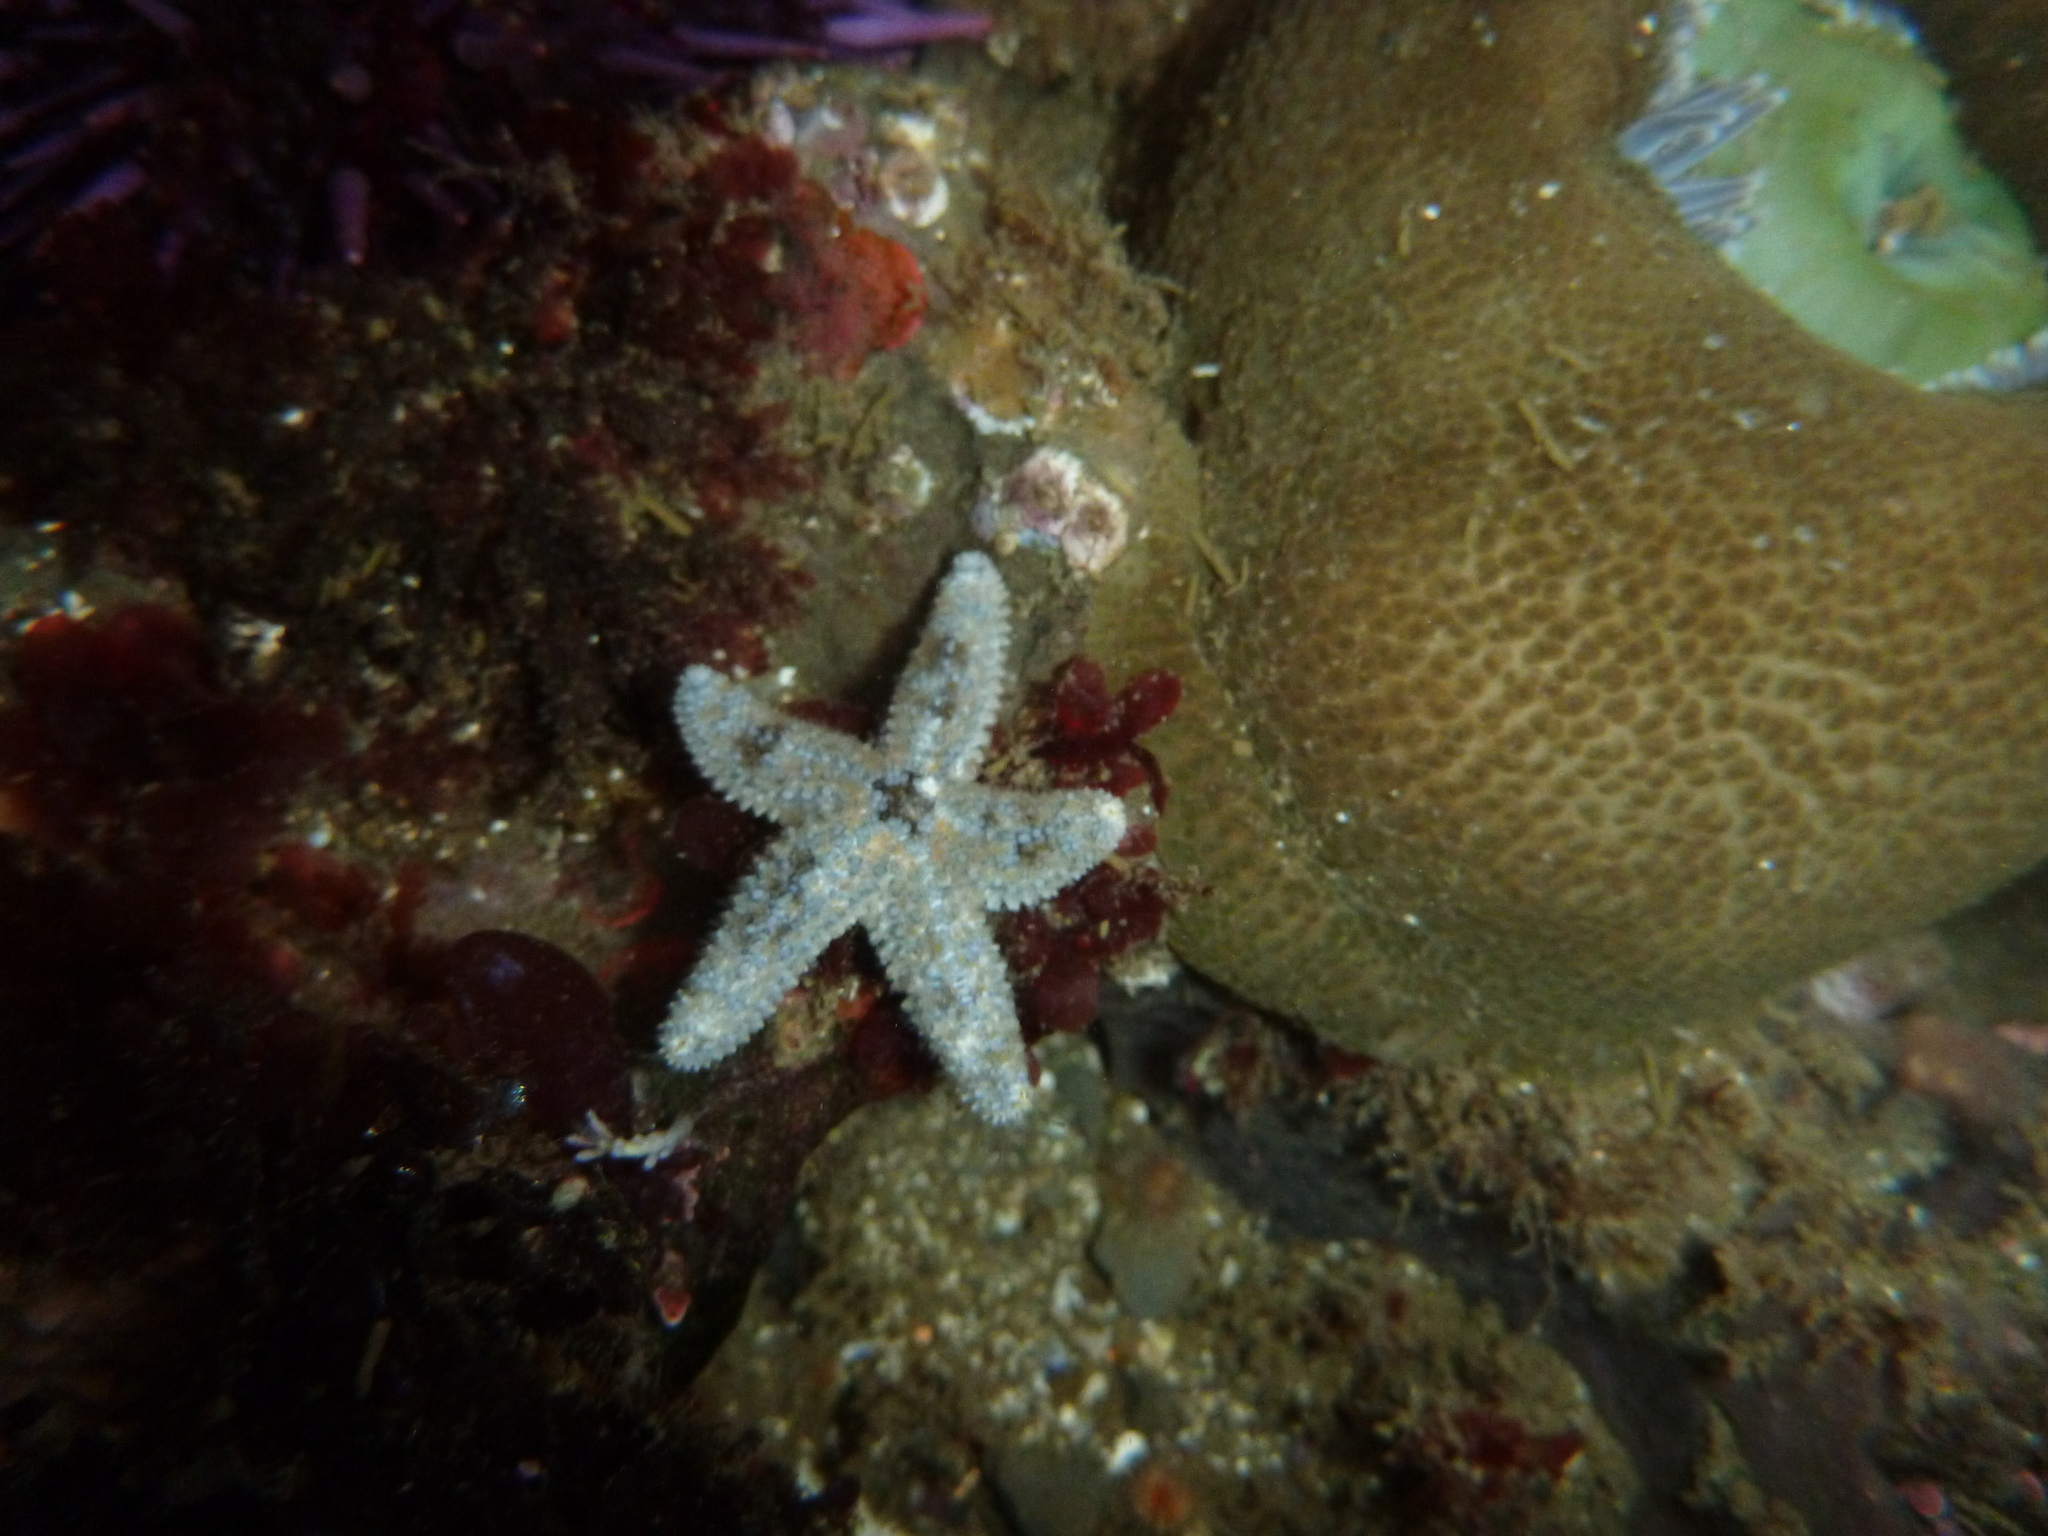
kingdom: Animalia
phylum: Echinodermata
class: Asteroidea
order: Forcipulatida
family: Asteriidae
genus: Pisaster
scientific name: Pisaster ochraceus
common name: Ochre stars
